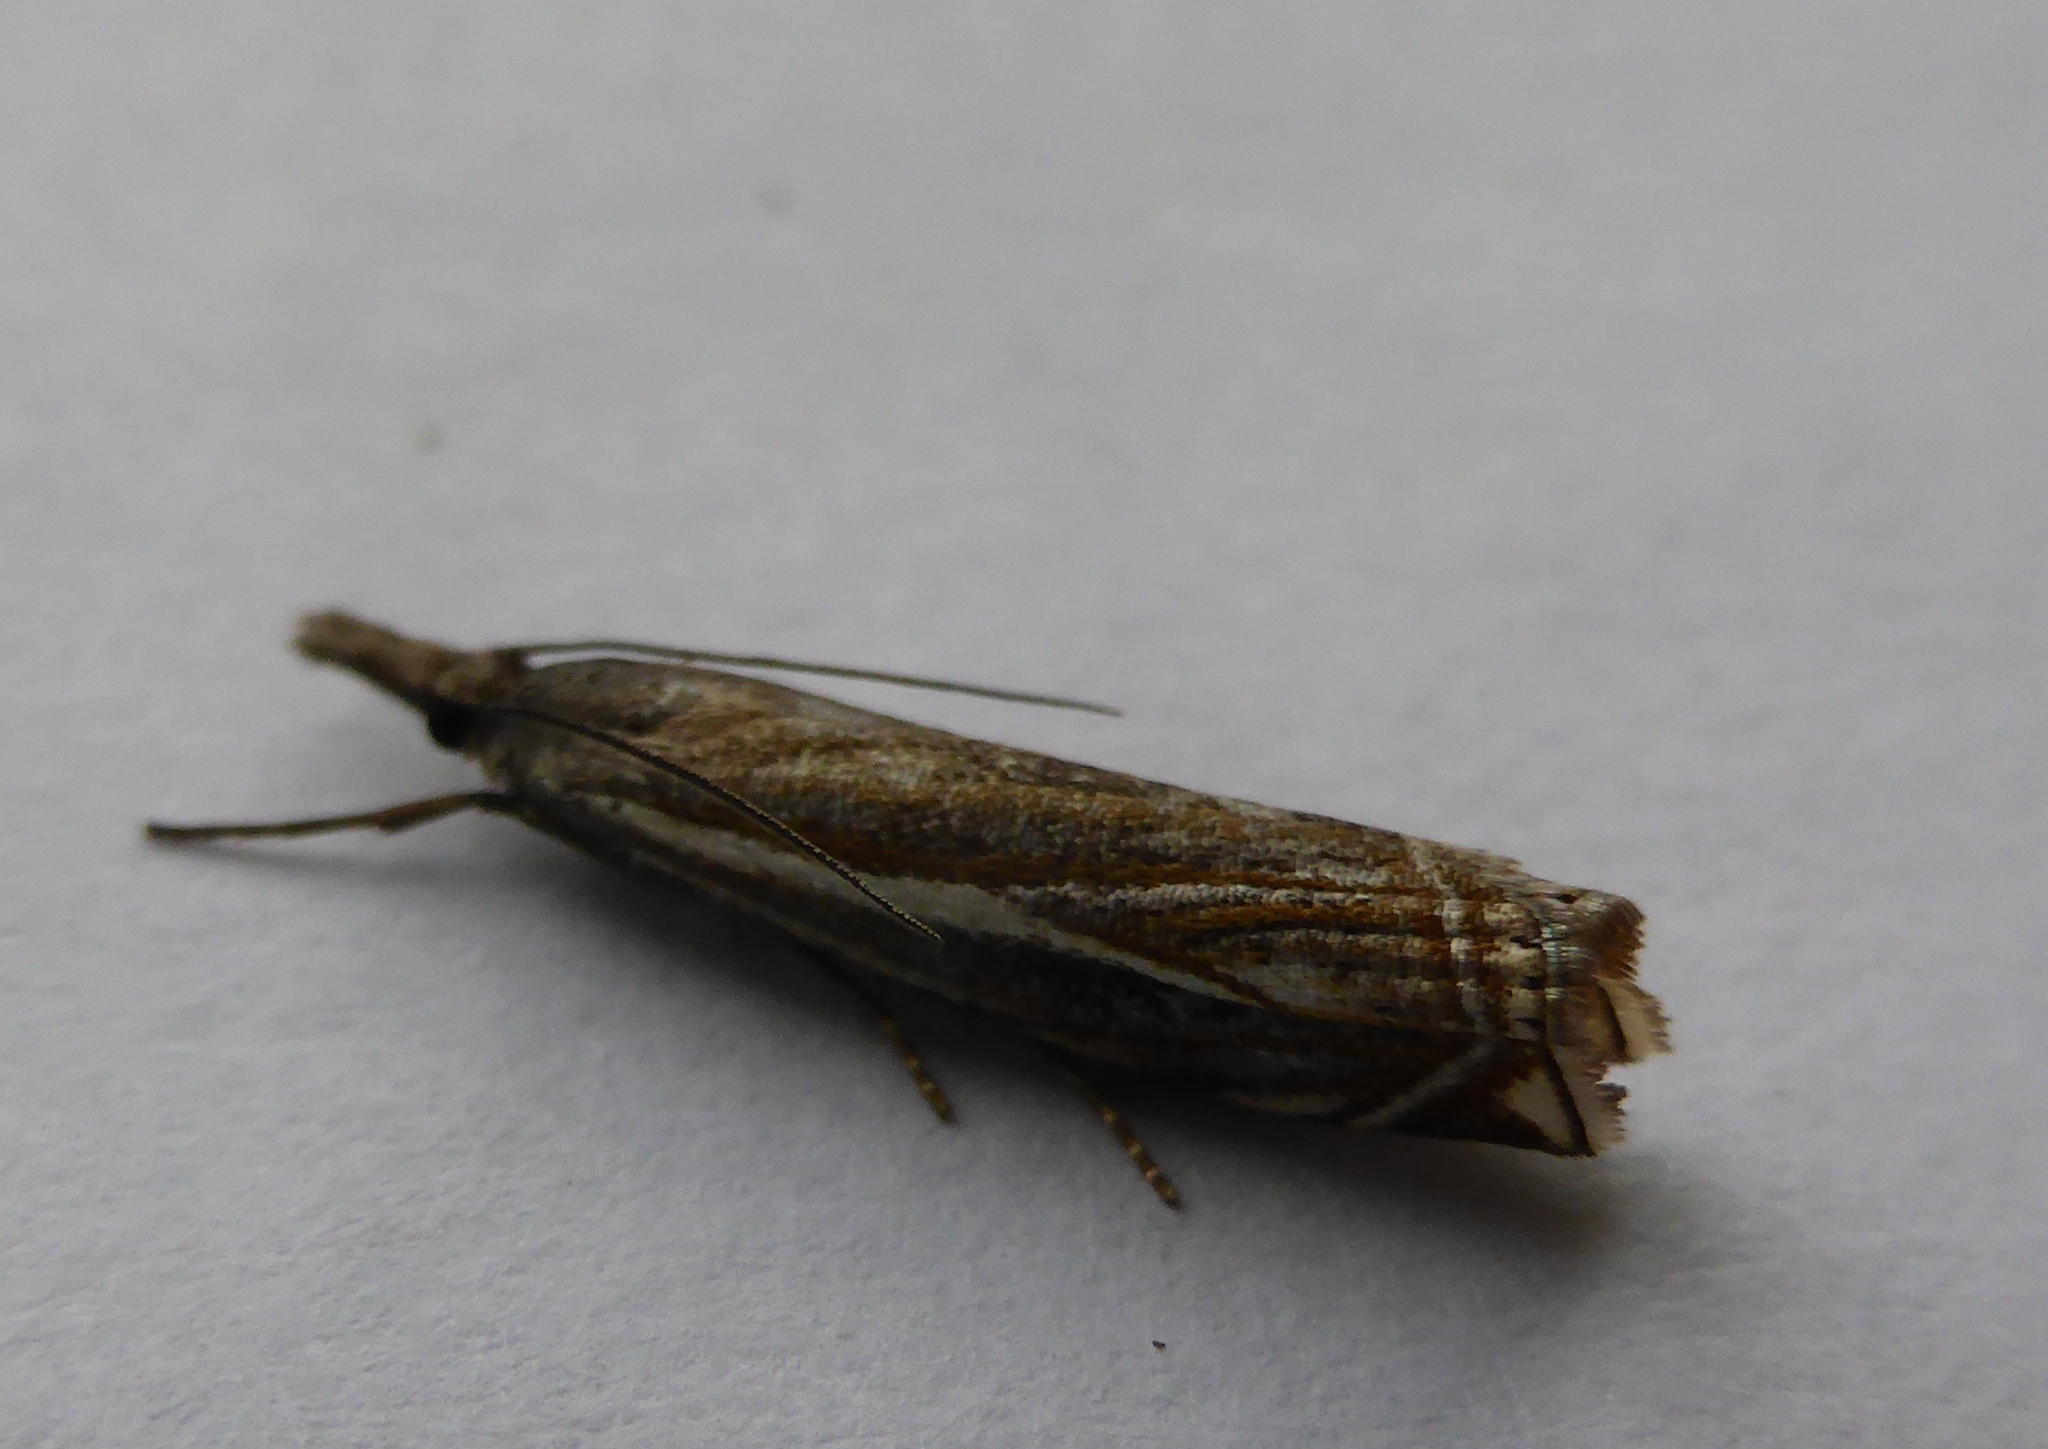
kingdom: Animalia
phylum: Arthropoda
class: Insecta
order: Lepidoptera
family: Crambidae
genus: Crambus
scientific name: Crambus nemorella
